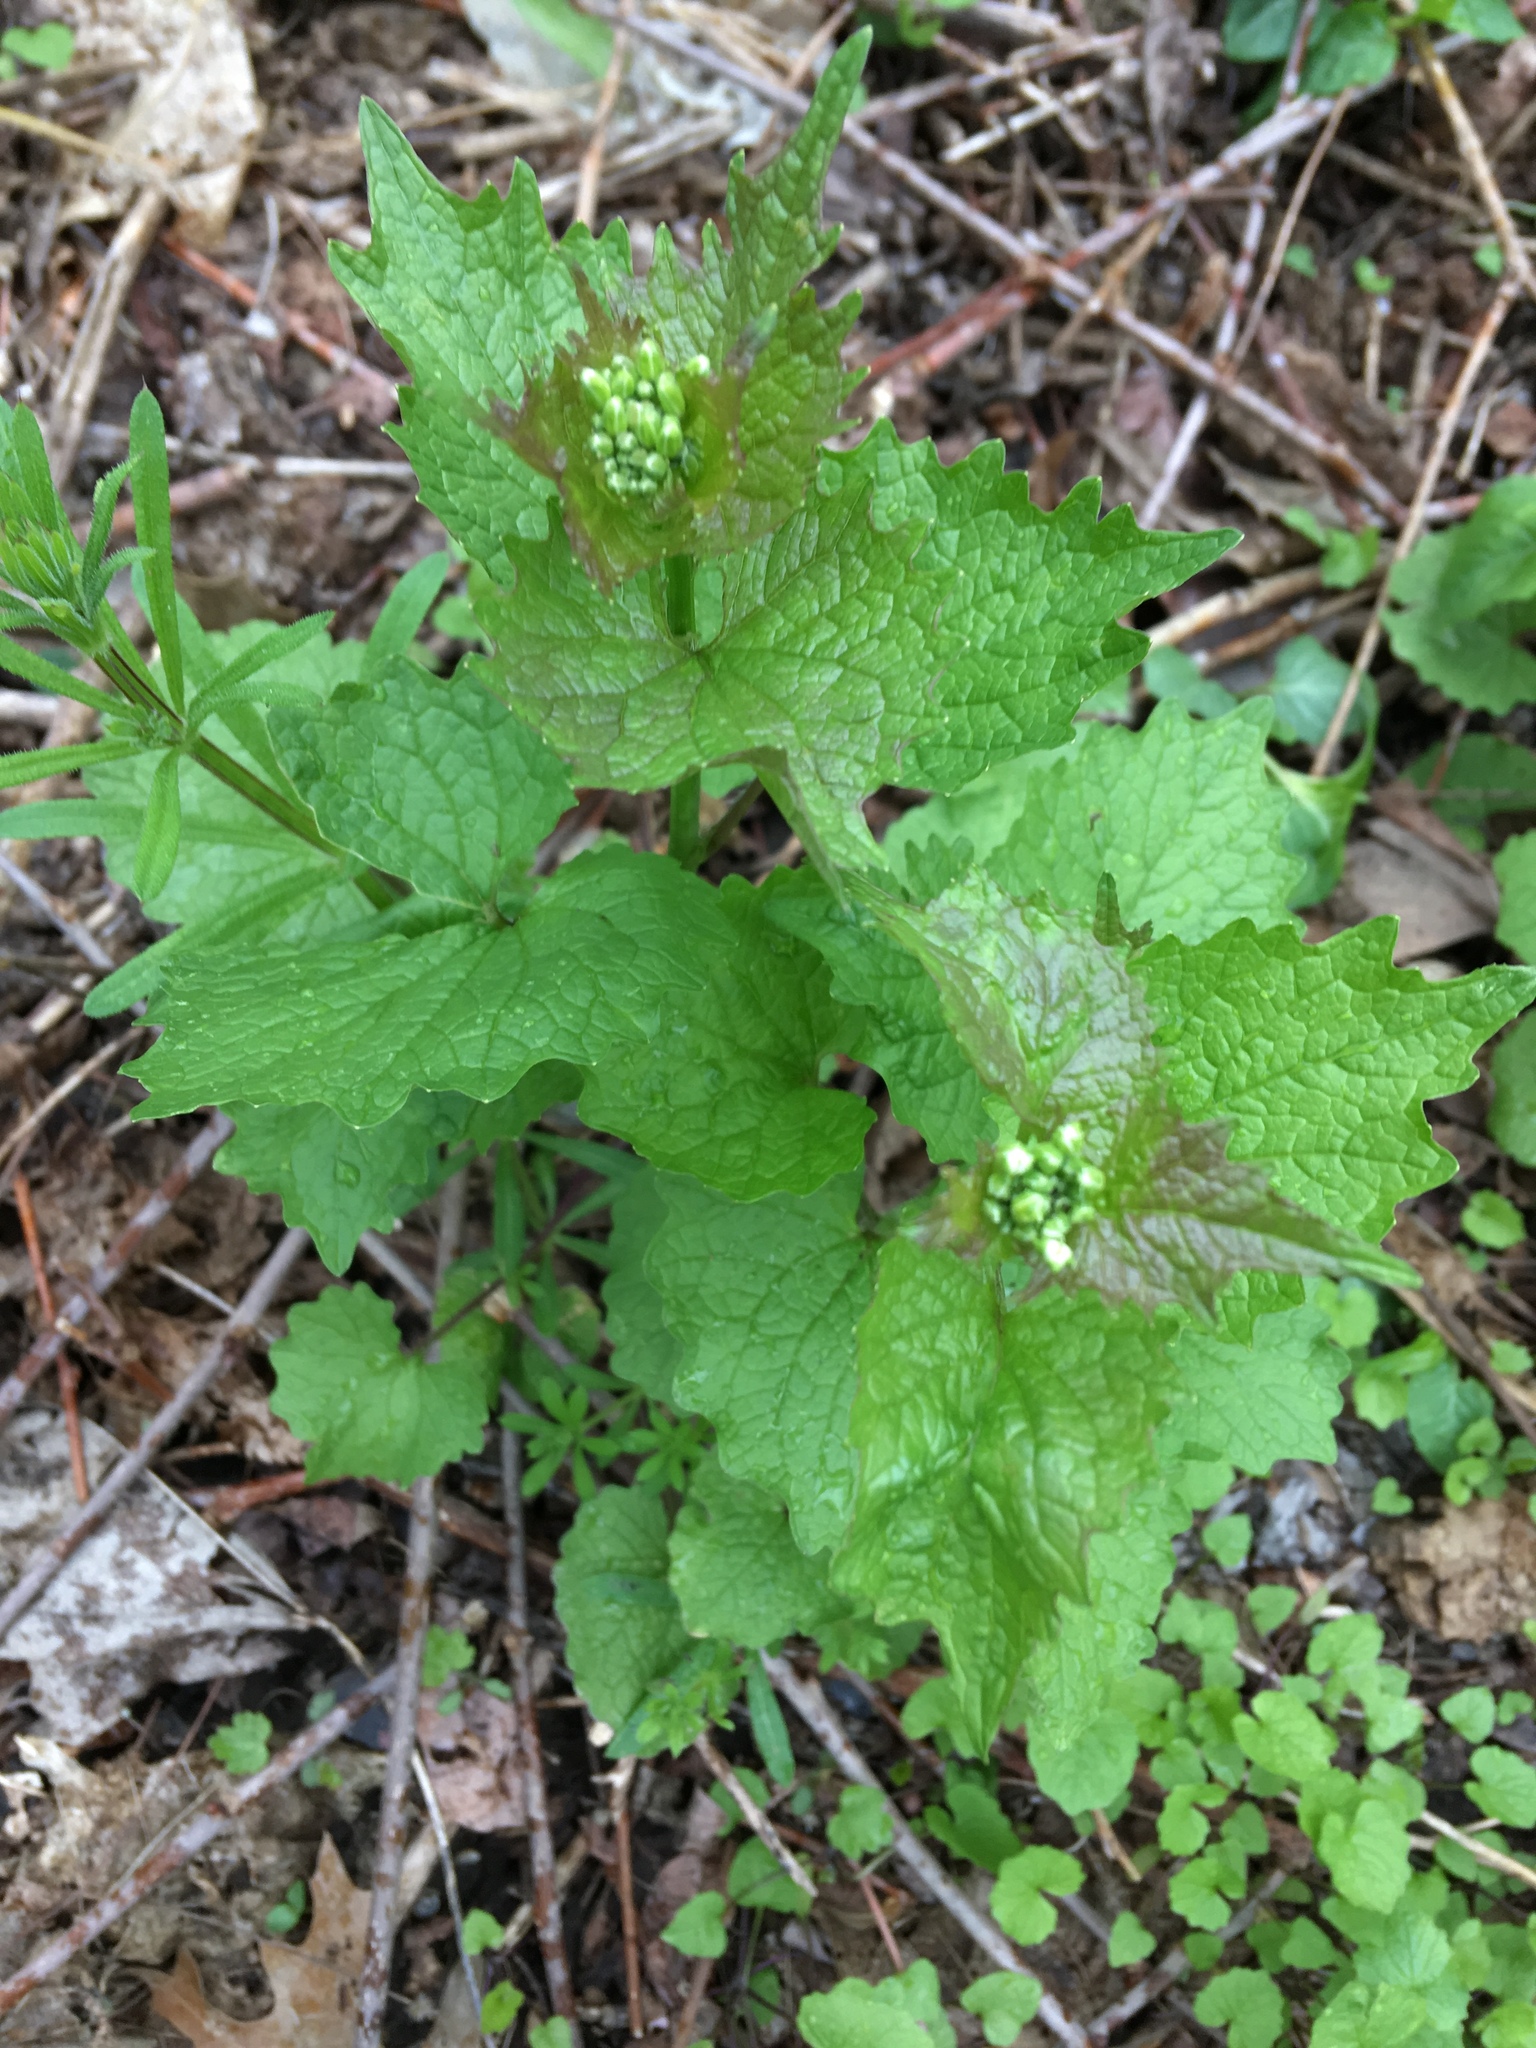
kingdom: Plantae
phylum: Tracheophyta
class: Magnoliopsida
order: Brassicales
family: Brassicaceae
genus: Alliaria
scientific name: Alliaria petiolata
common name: Garlic mustard
